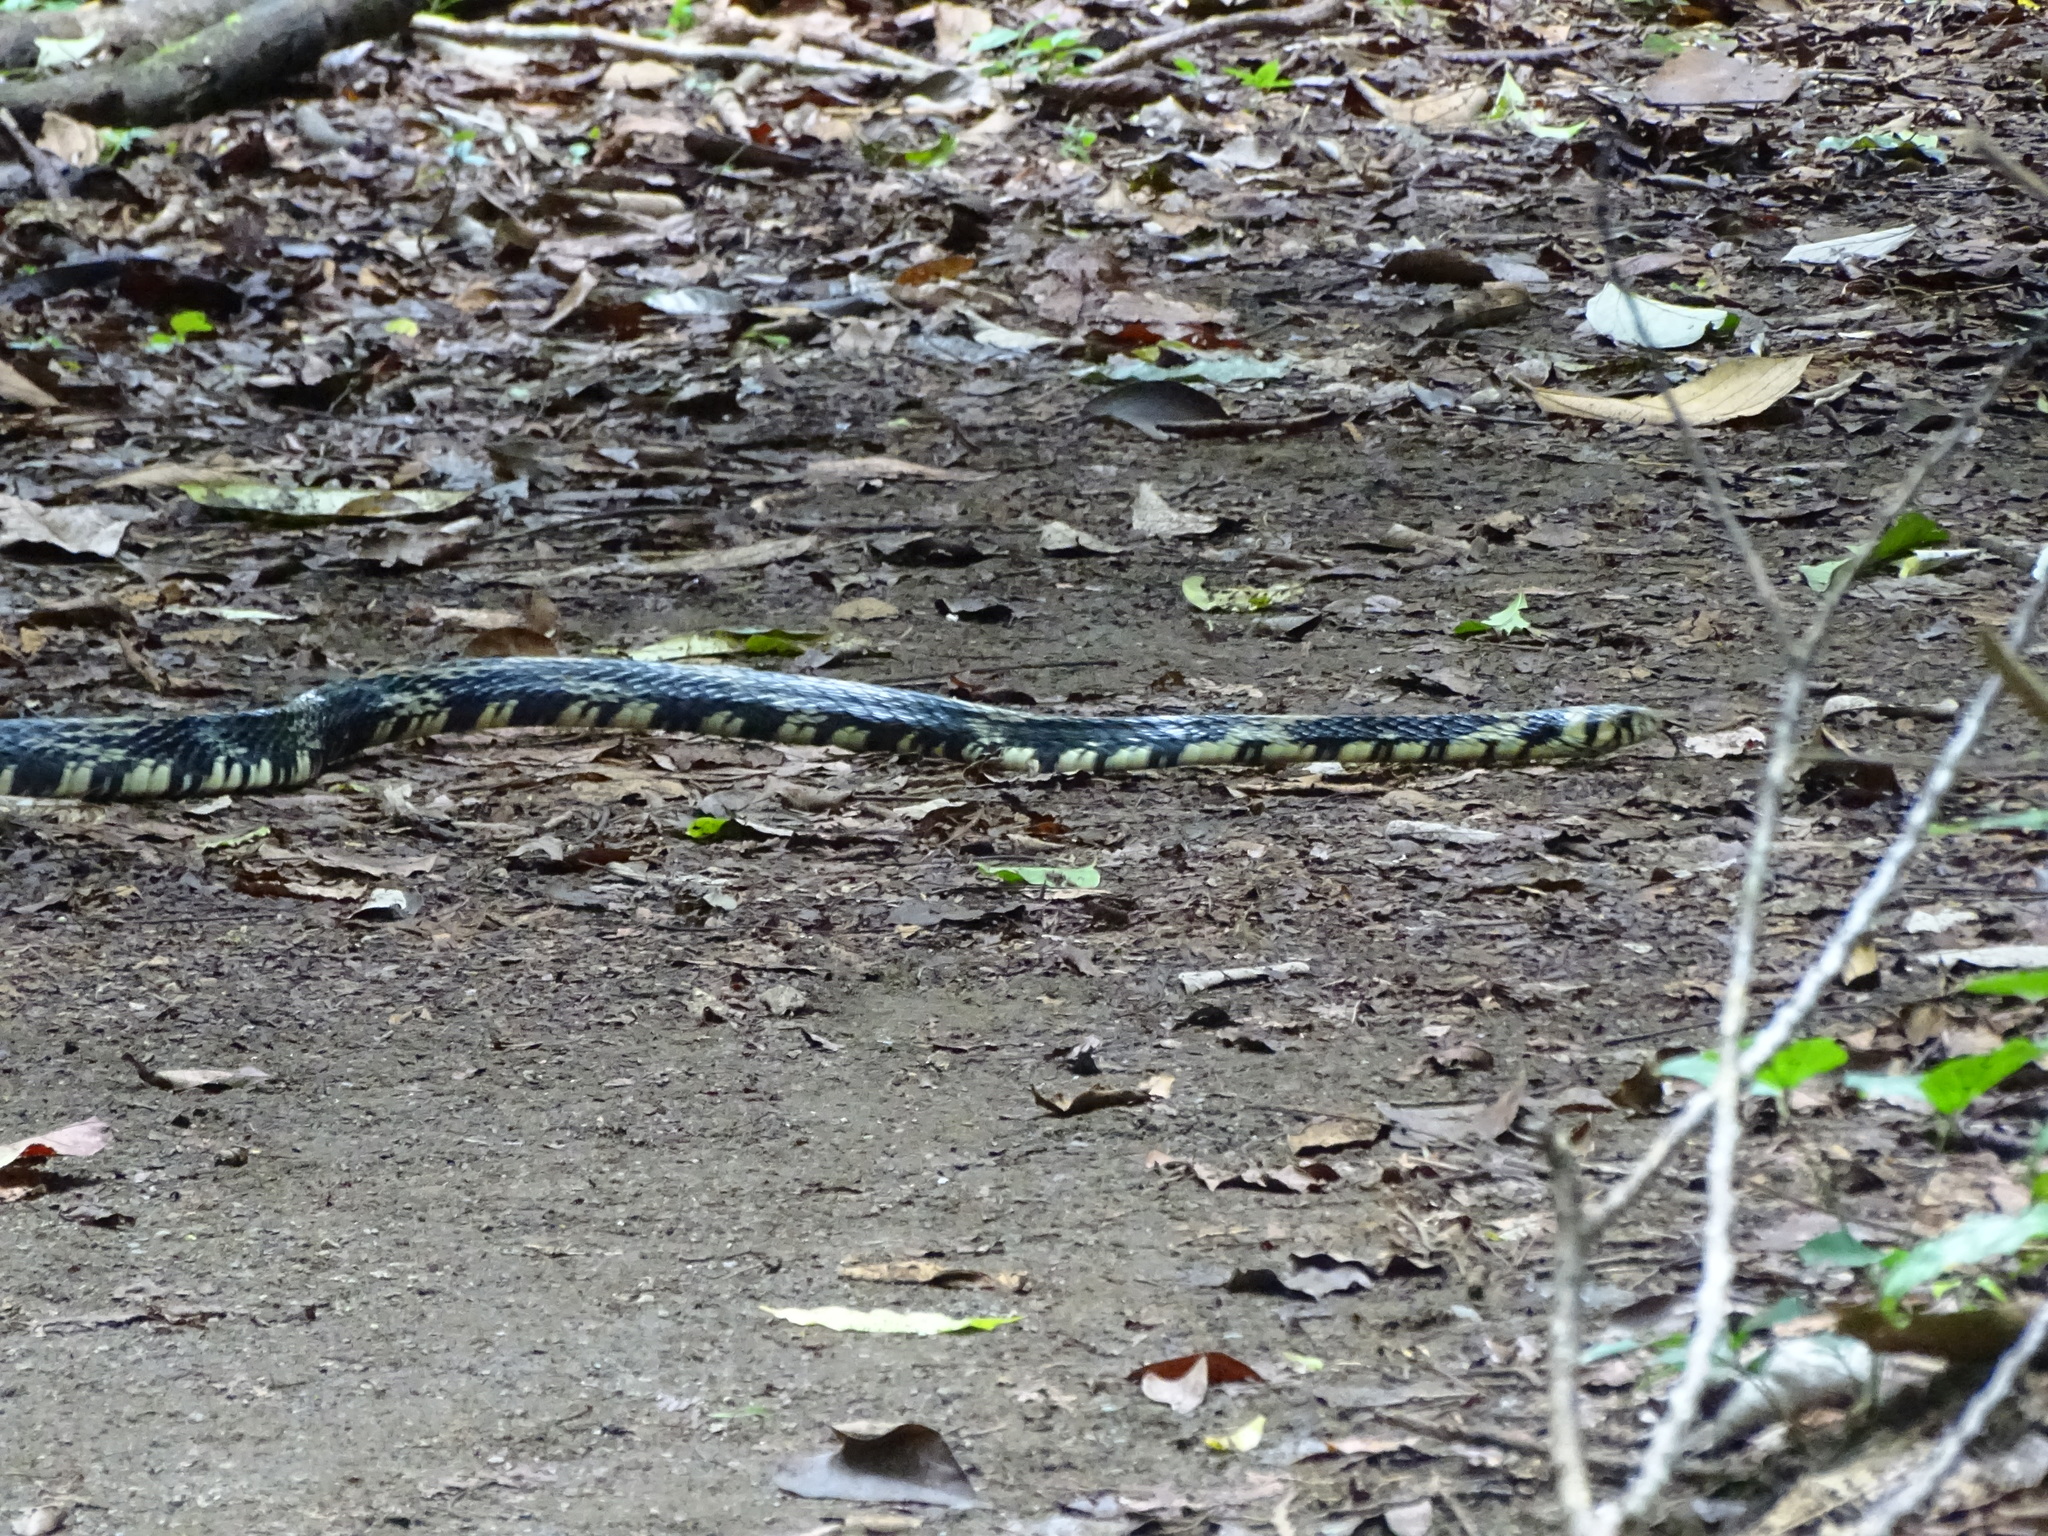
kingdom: Animalia
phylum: Chordata
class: Squamata
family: Colubridae
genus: Spilotes
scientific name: Spilotes pullatus
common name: Chicken snake
